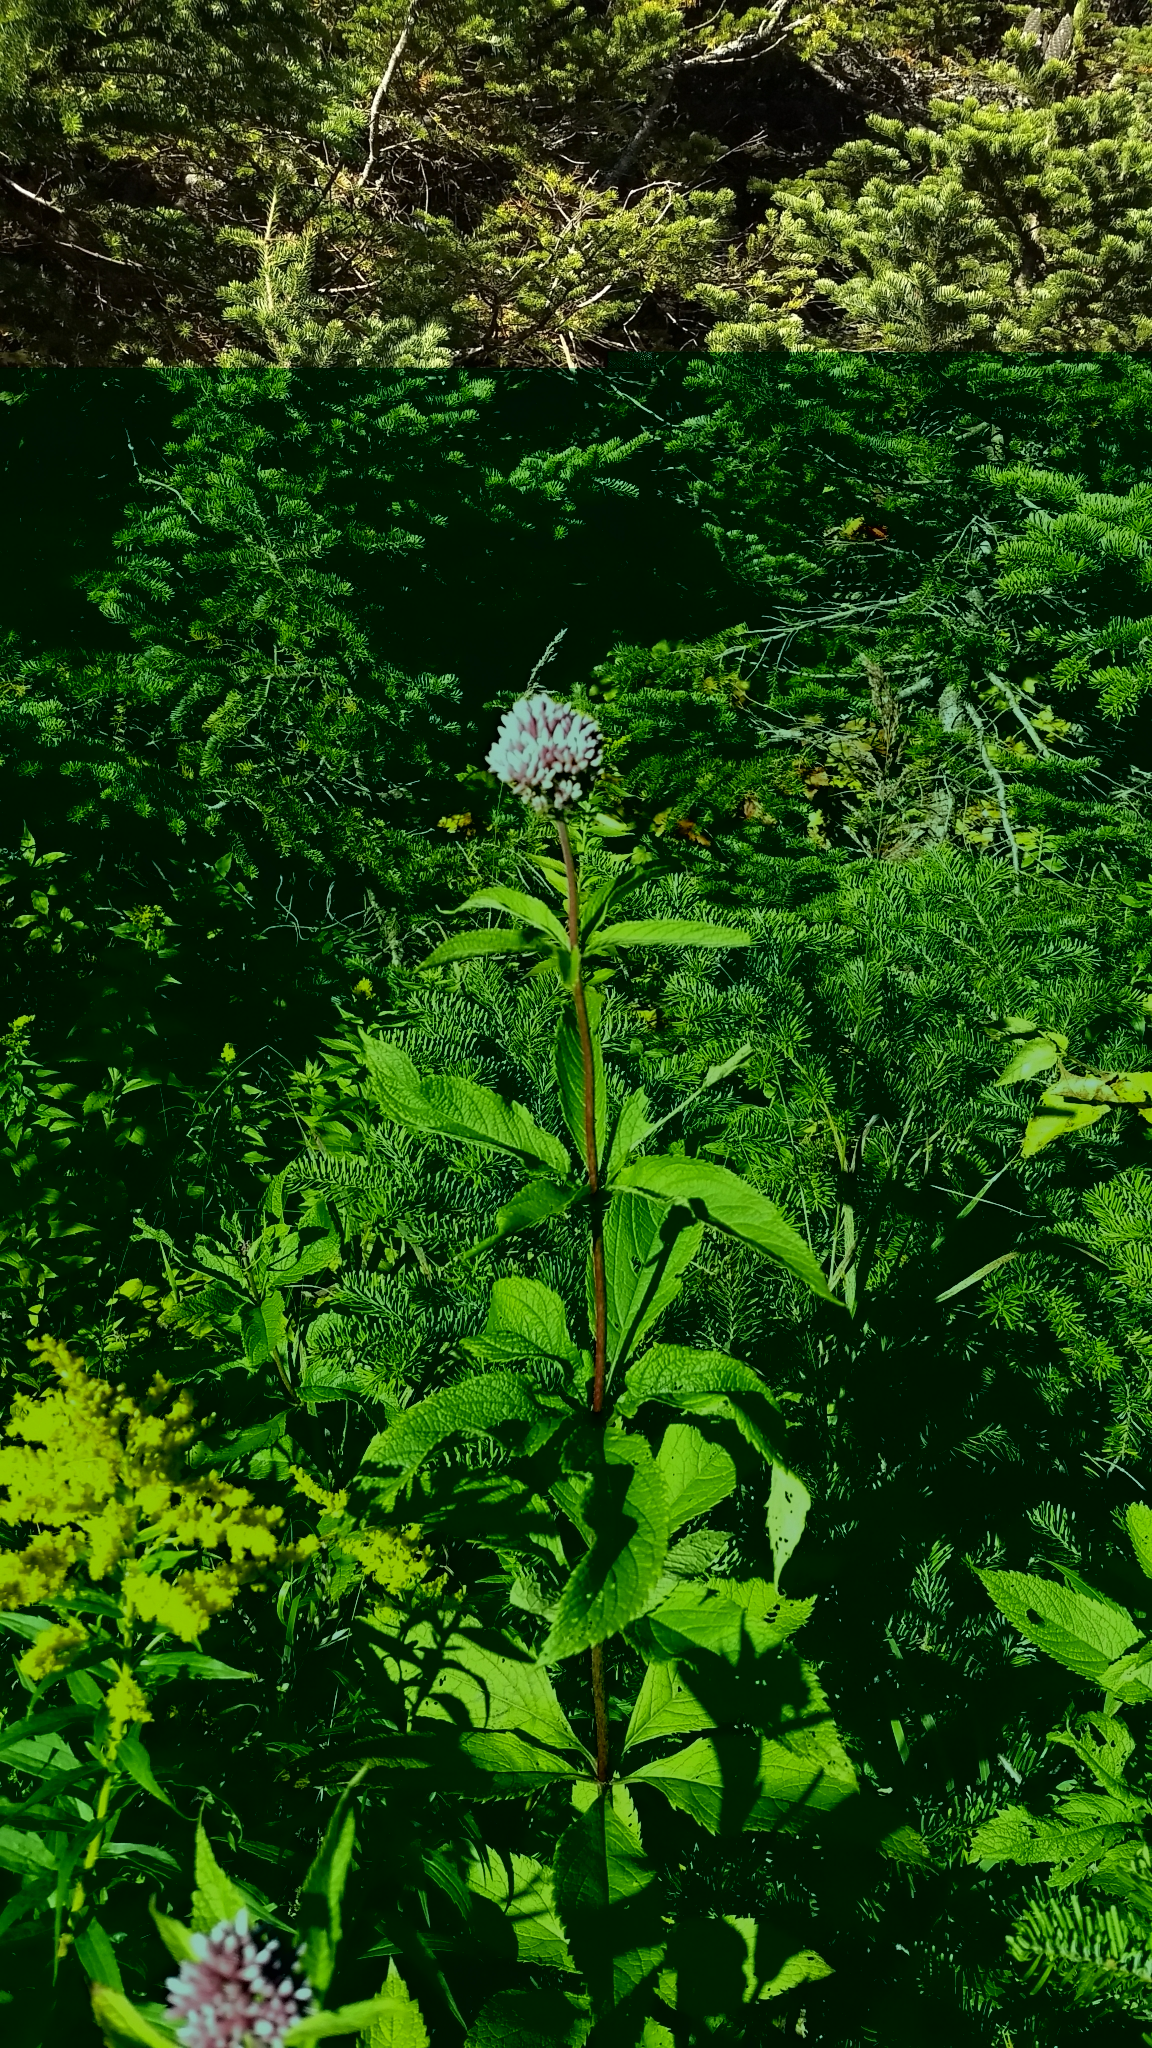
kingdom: Plantae
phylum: Tracheophyta
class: Magnoliopsida
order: Asterales
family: Asteraceae
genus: Eutrochium
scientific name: Eutrochium maculatum
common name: Spotted joe pye weed
